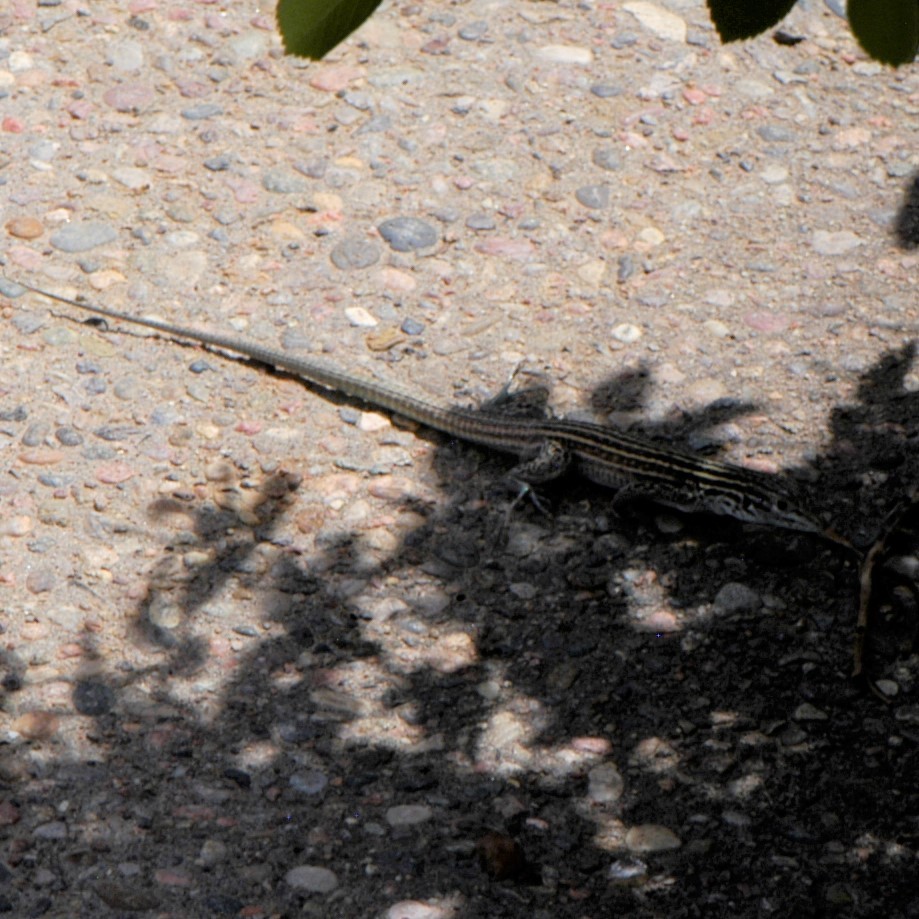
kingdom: Animalia
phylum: Chordata
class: Squamata
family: Teiidae
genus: Aspidoscelis
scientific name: Aspidoscelis neomexicanus
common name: New mexico whiptail
